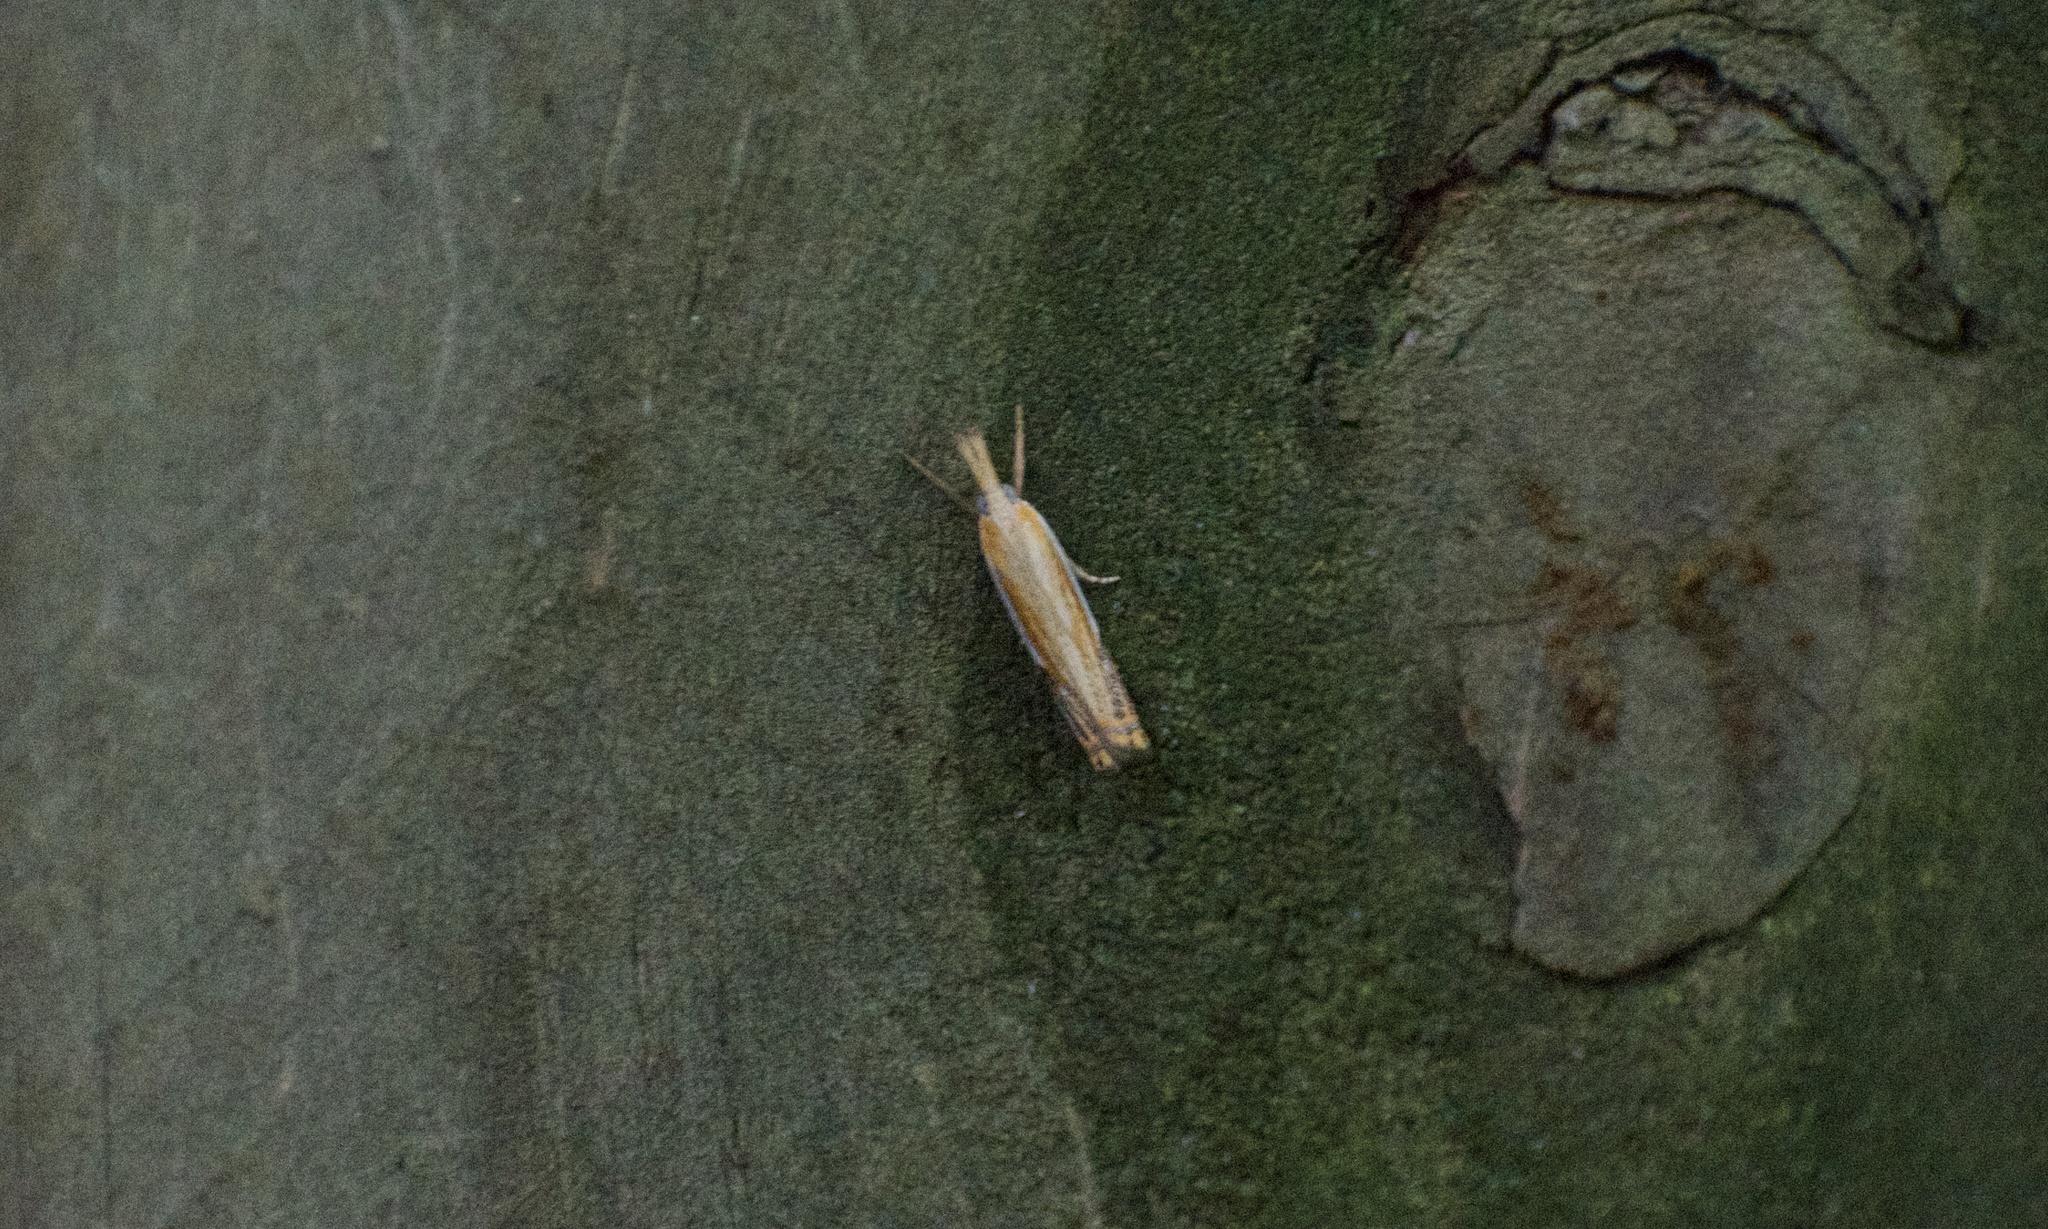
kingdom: Animalia
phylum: Arthropoda
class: Insecta
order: Lepidoptera
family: Crambidae
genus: Crambus
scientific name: Crambus agitatellus
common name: Double-banded grass-veneer
